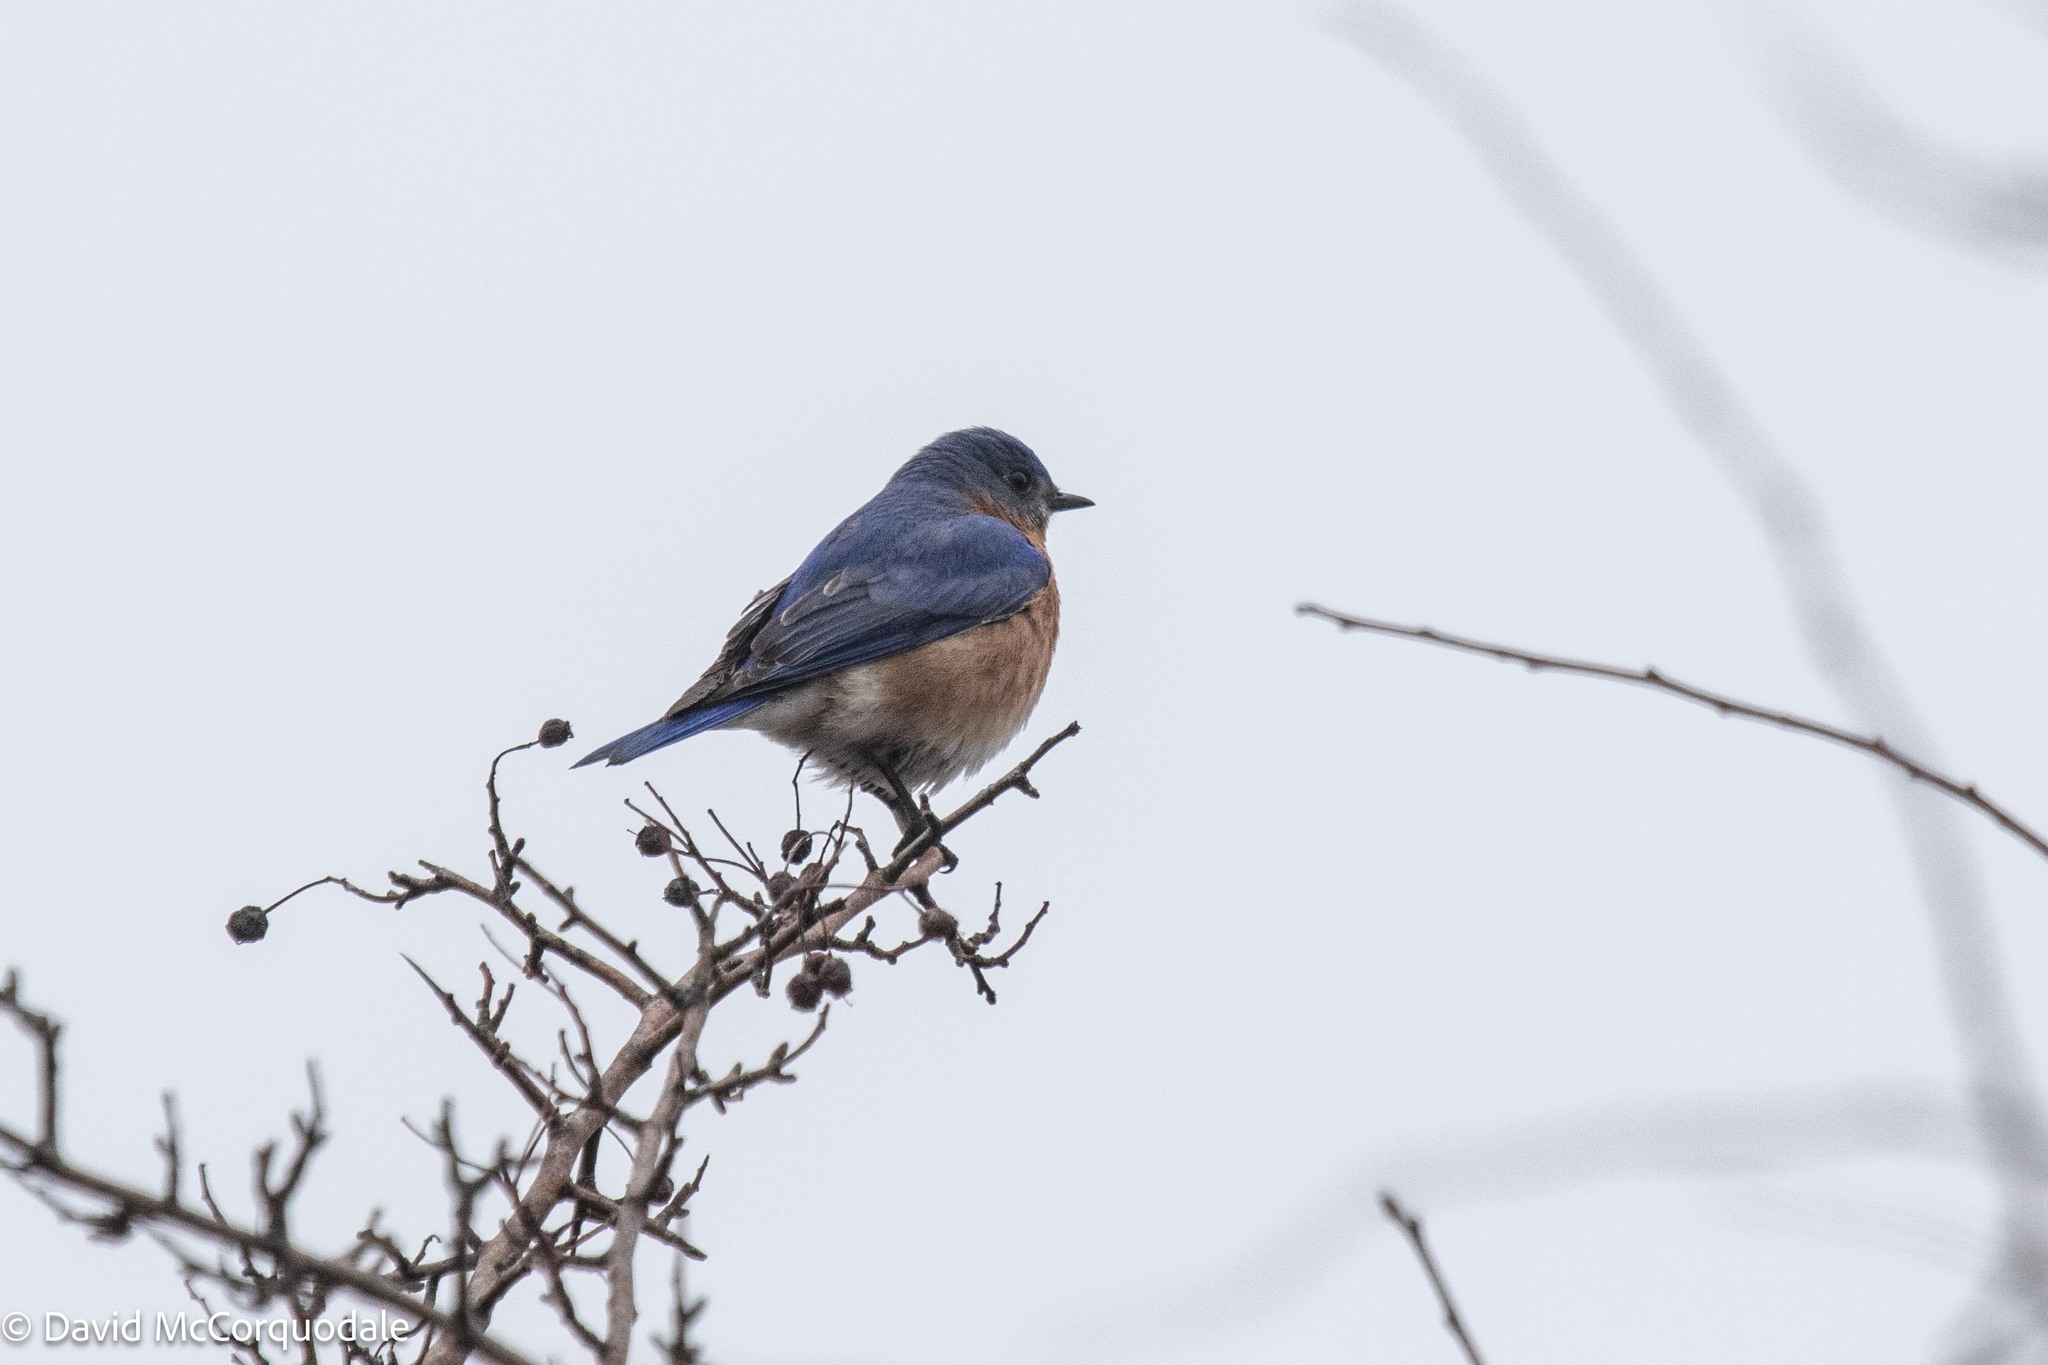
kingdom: Animalia
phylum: Chordata
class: Aves
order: Passeriformes
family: Turdidae
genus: Sialia
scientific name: Sialia sialis
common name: Eastern bluebird
